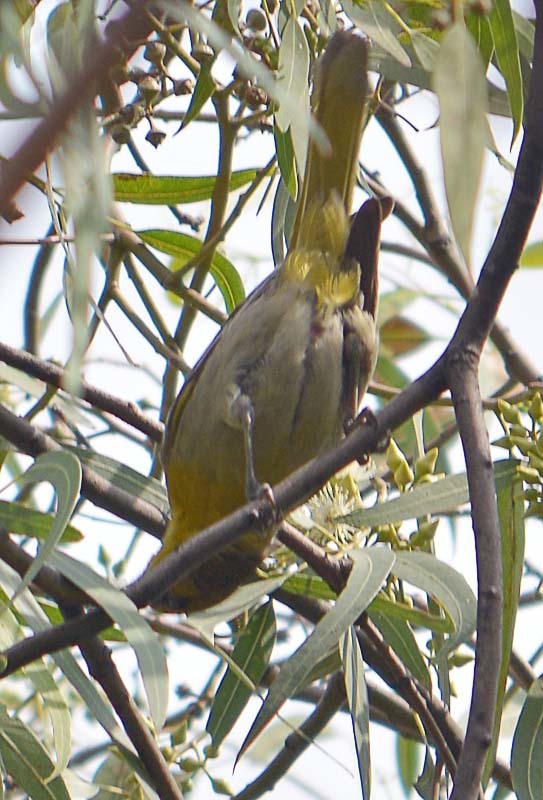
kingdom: Animalia
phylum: Chordata
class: Aves
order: Passeriformes
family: Parulidae
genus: Leiothlypis
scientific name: Leiothlypis ruficapilla
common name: Nashville warbler
